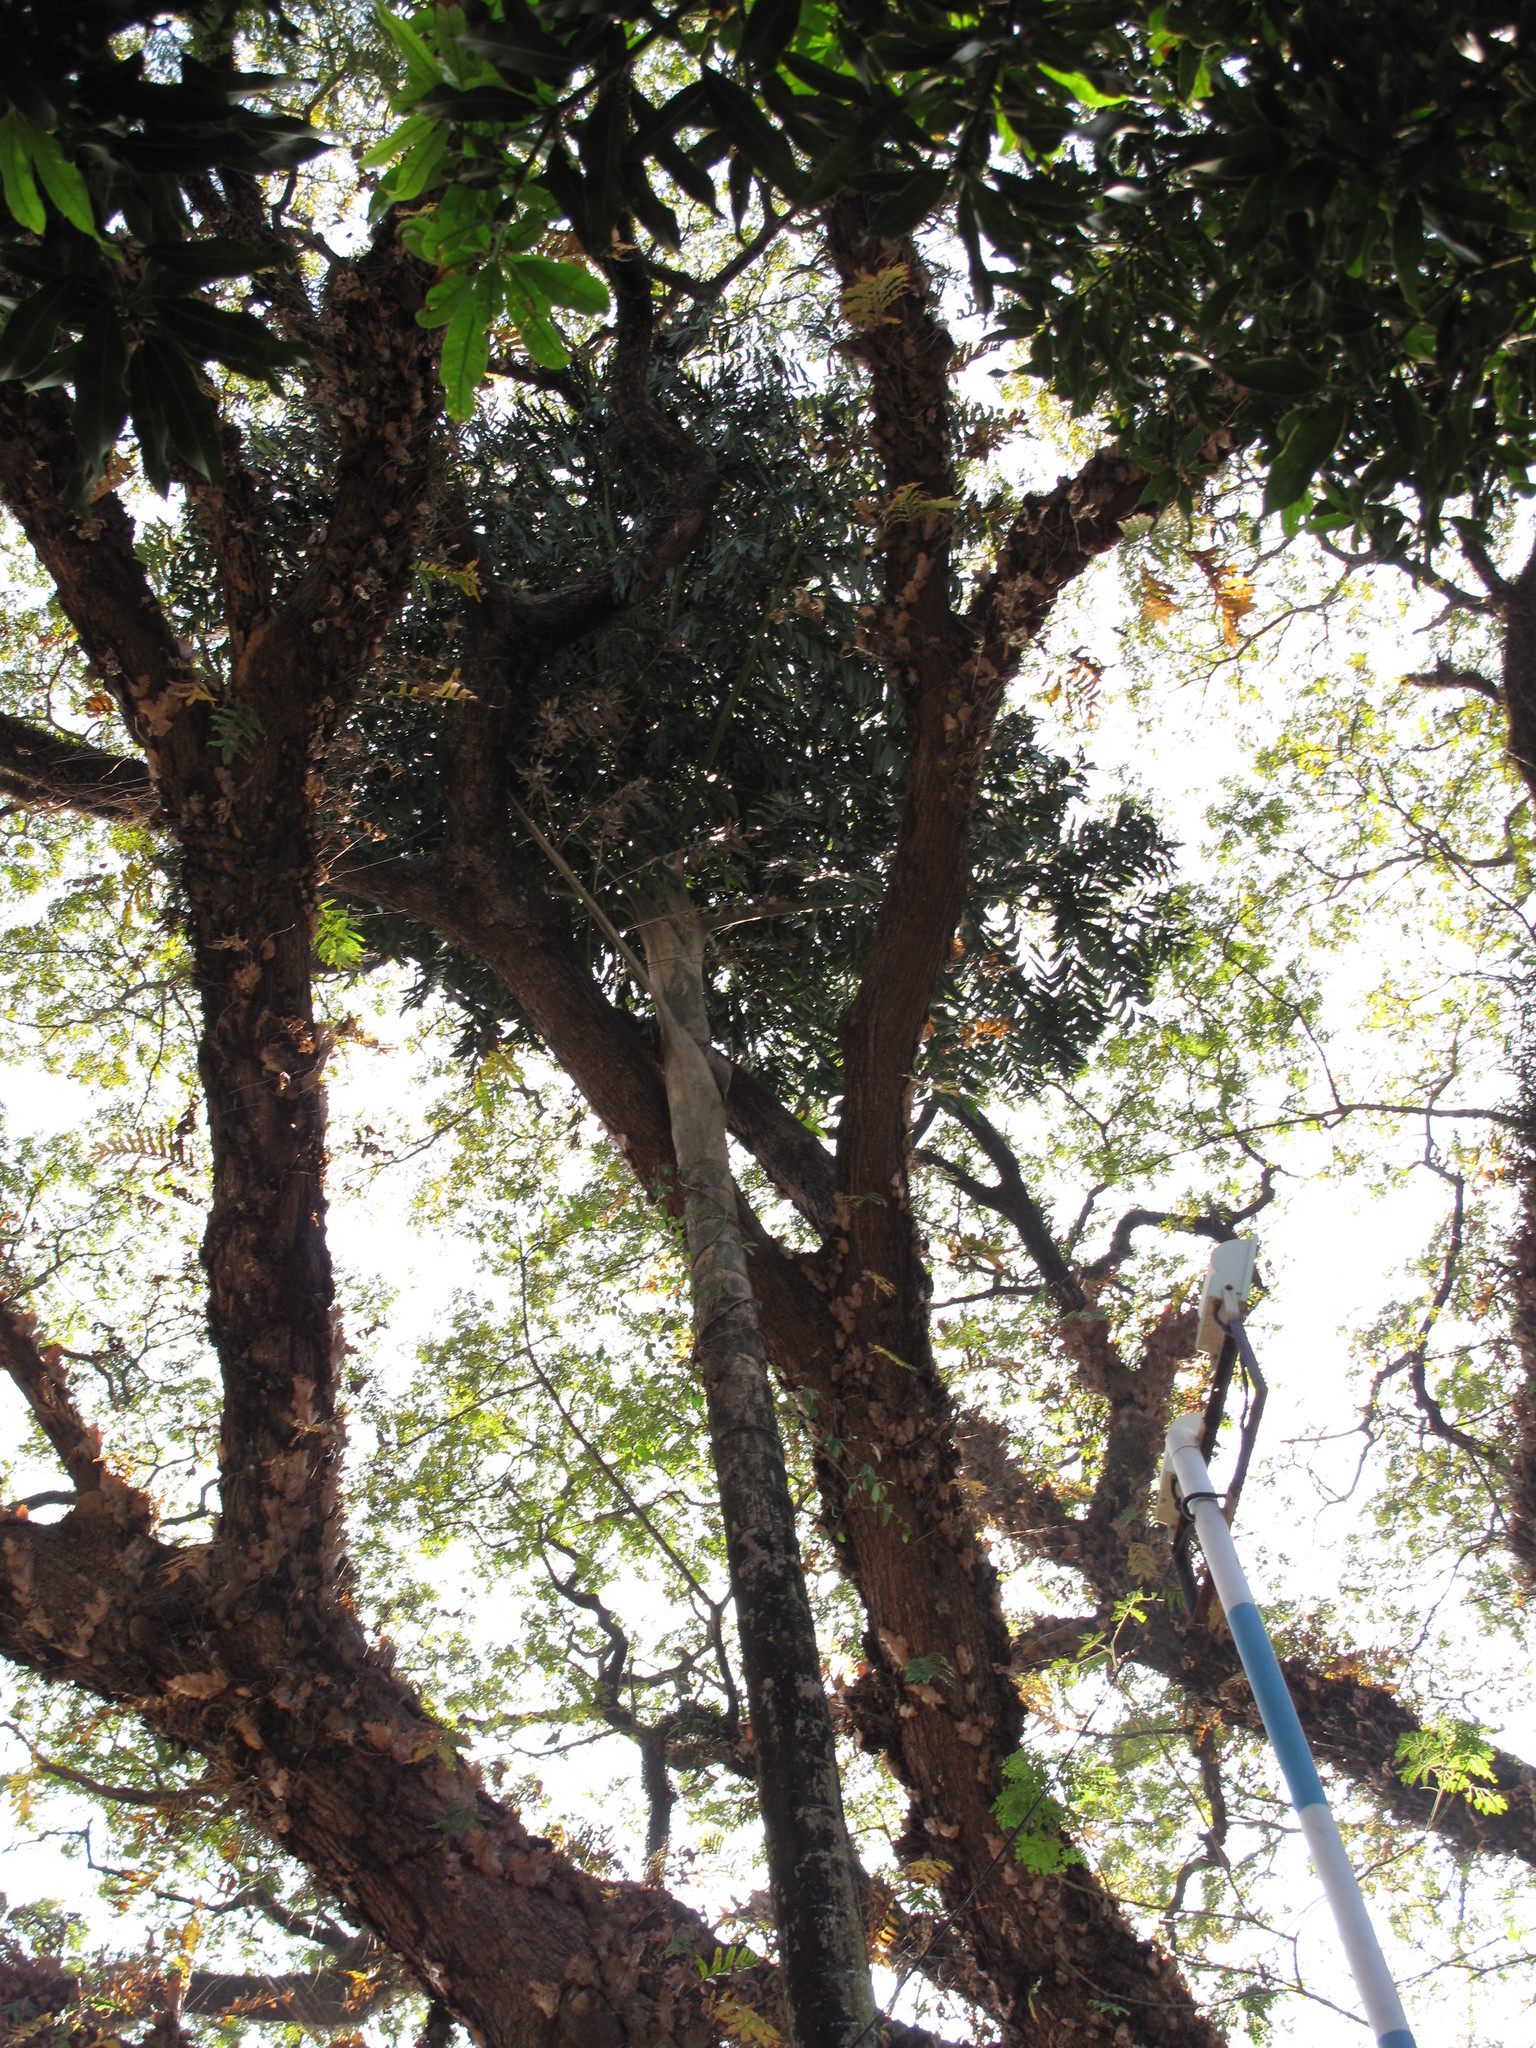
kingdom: Plantae
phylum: Tracheophyta
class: Liliopsida
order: Arecales
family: Arecaceae
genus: Caryota
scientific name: Caryota urens
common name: Jaggery palm
